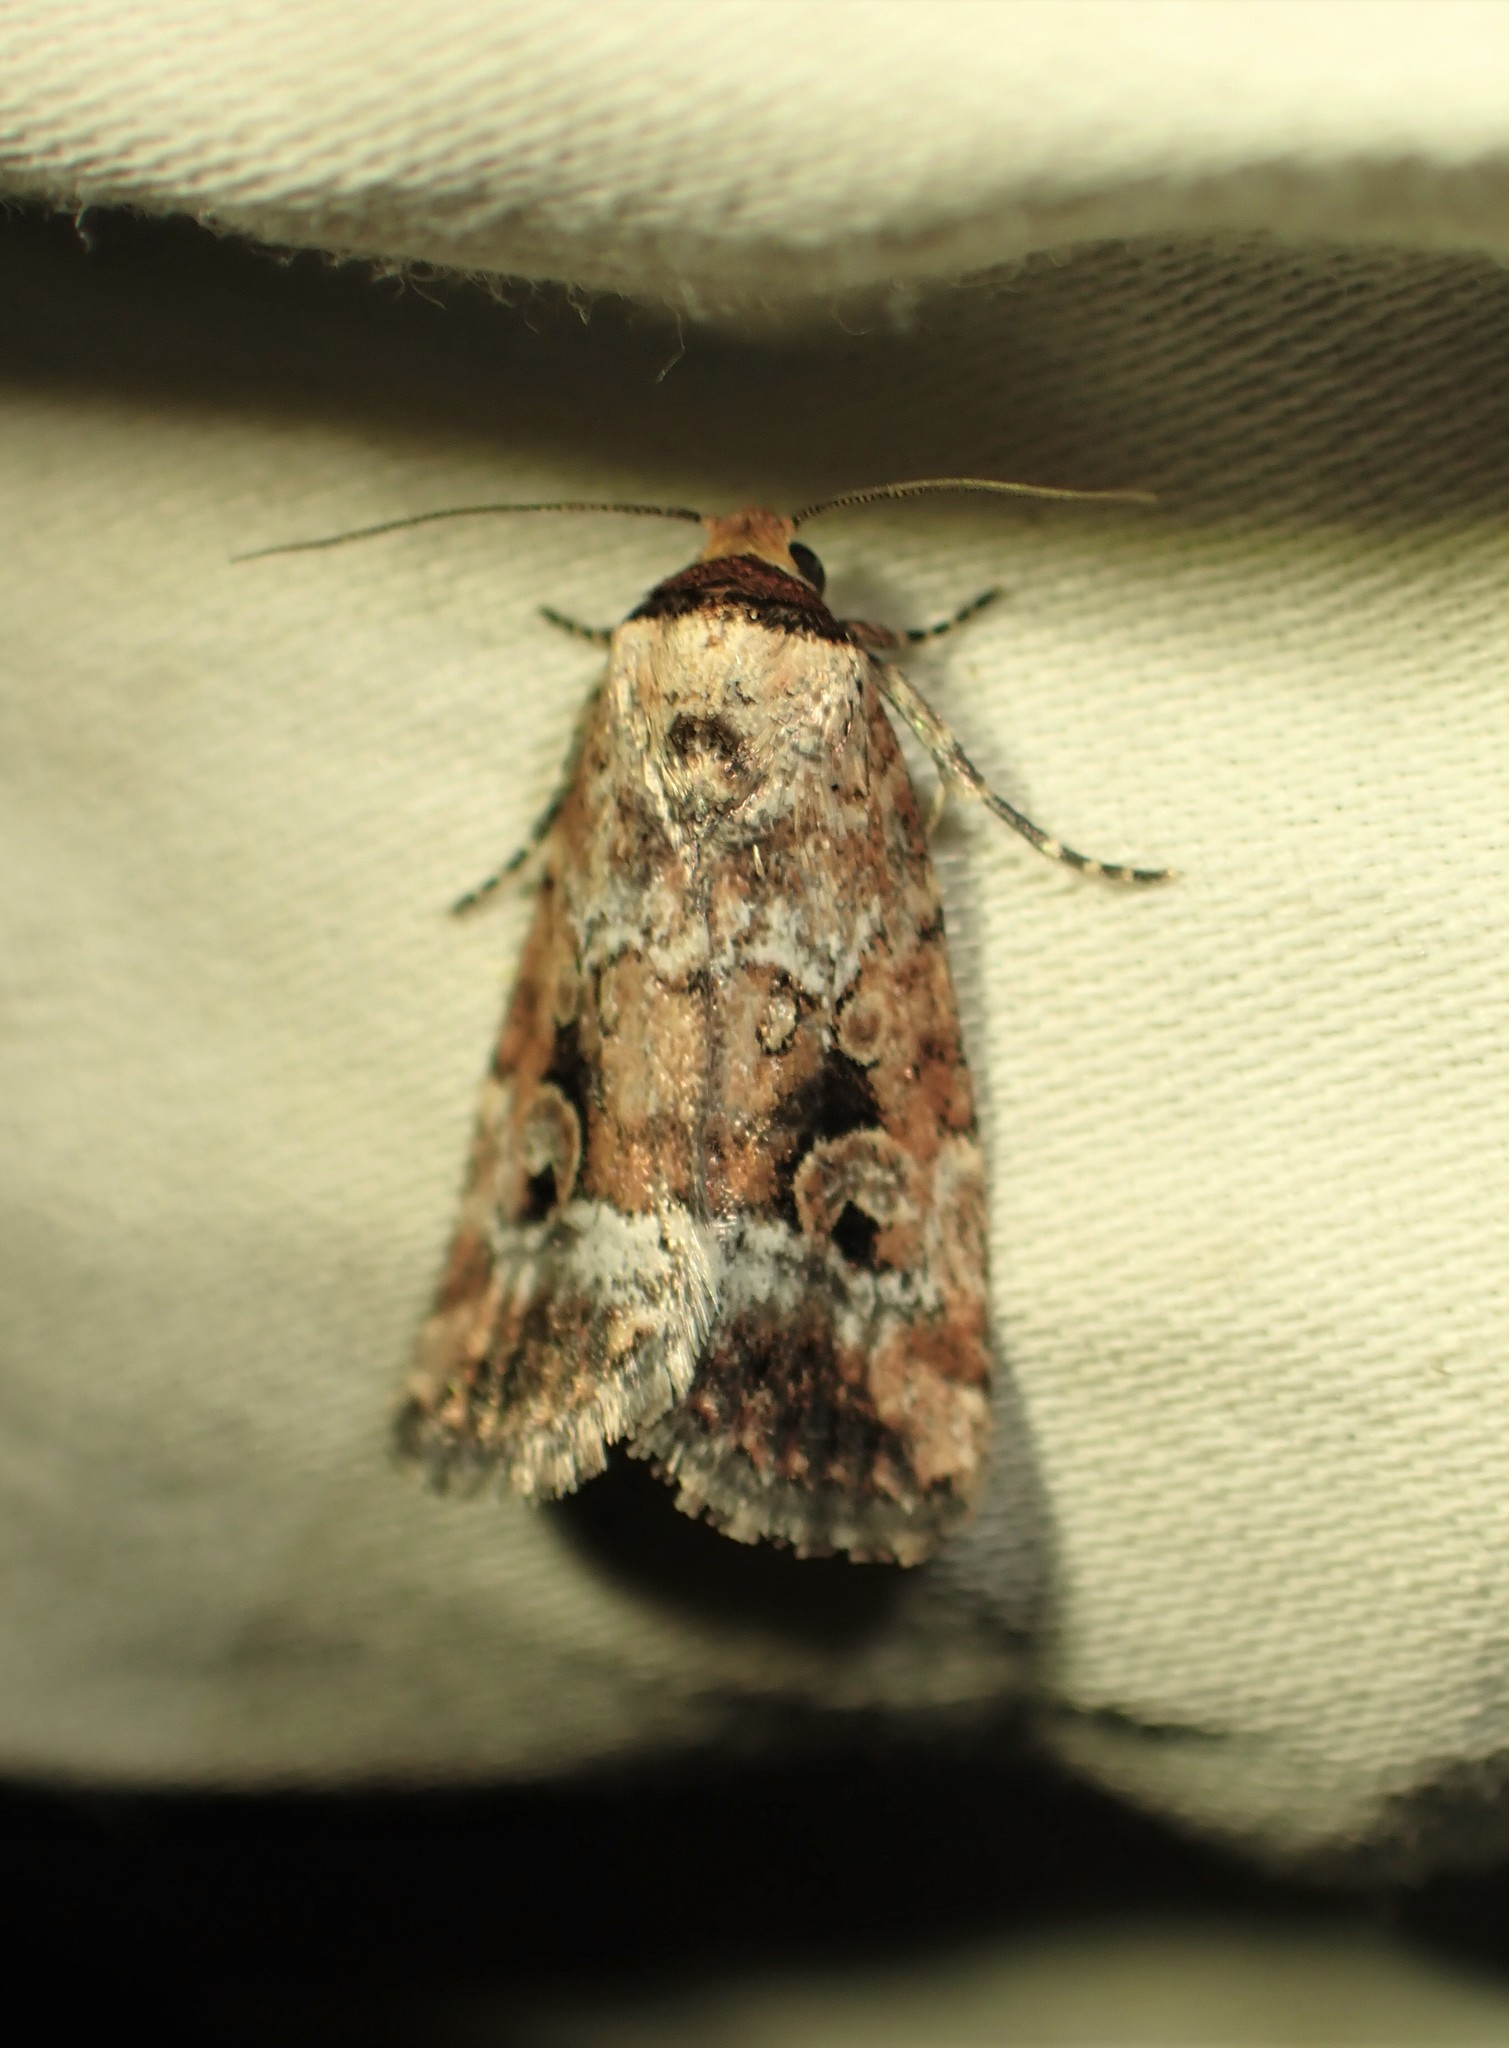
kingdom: Animalia
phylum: Arthropoda
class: Insecta
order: Lepidoptera
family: Noctuidae
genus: Elaphria
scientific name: Elaphria alapallida
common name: Pale-winged midget
